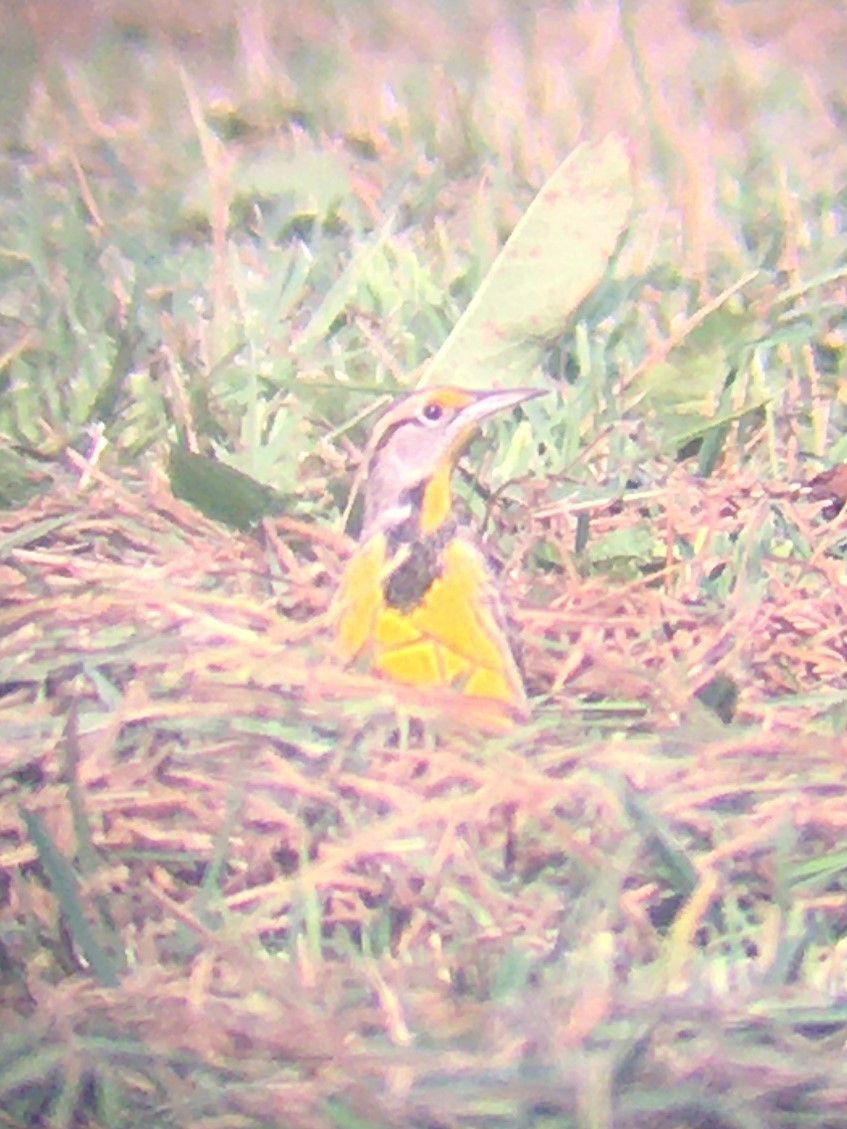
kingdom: Animalia
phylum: Chordata
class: Aves
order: Passeriformes
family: Icteridae
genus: Sturnella
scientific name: Sturnella magna
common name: Eastern meadowlark
